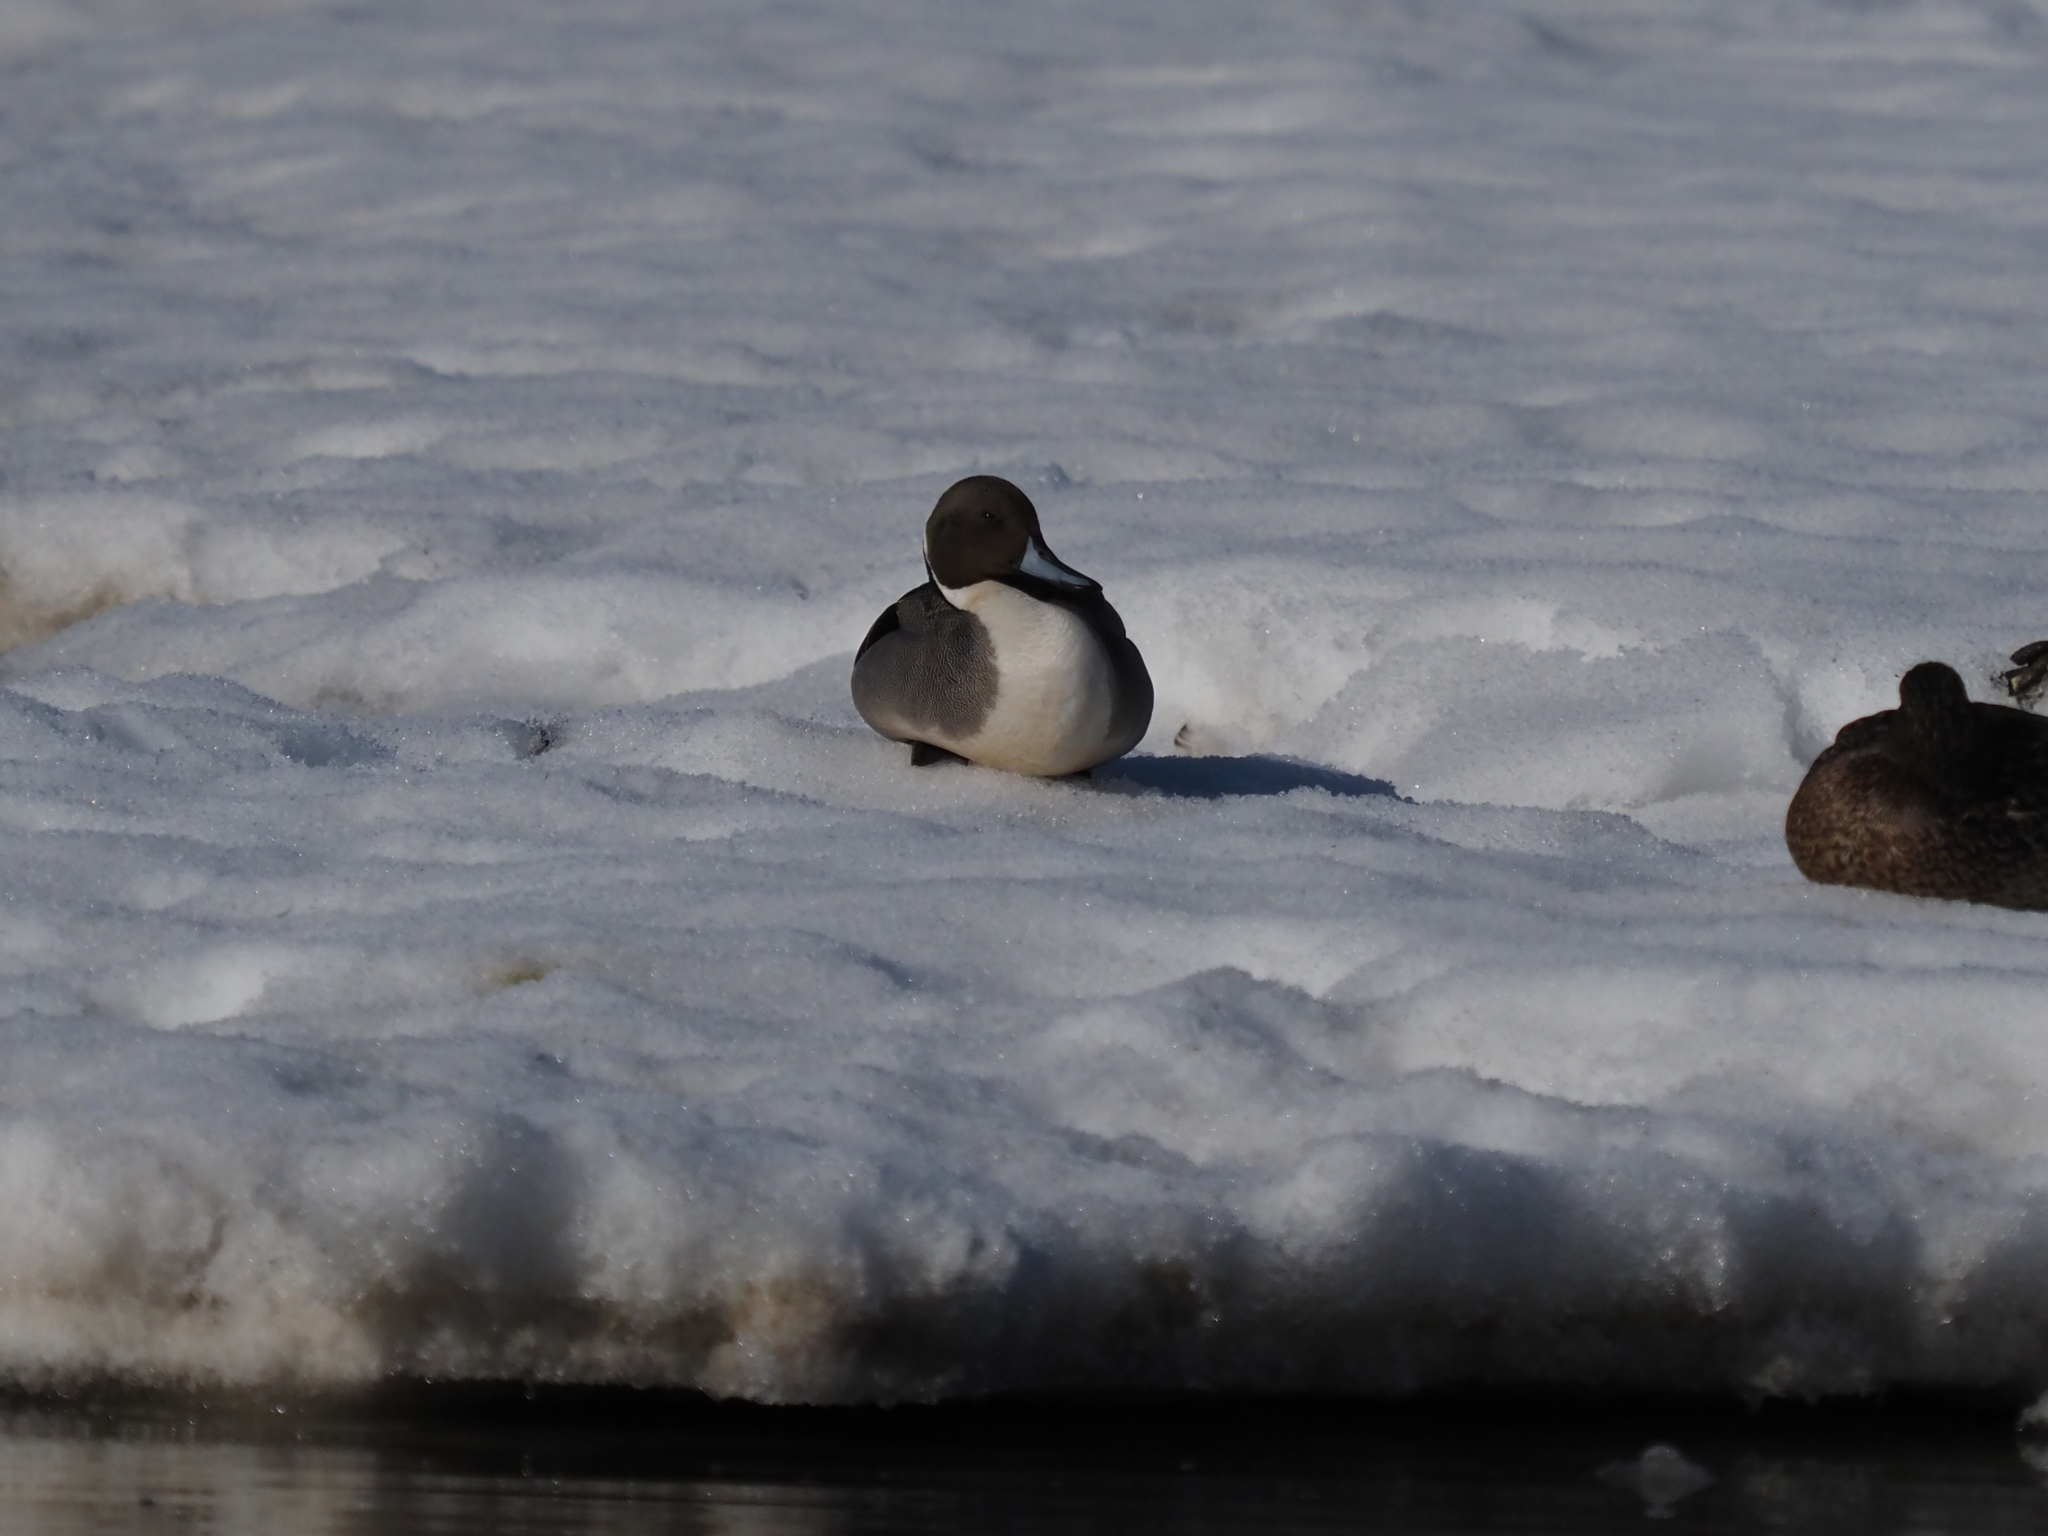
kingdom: Animalia
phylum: Chordata
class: Aves
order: Anseriformes
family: Anatidae
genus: Anas
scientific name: Anas acuta
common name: Northern pintail
